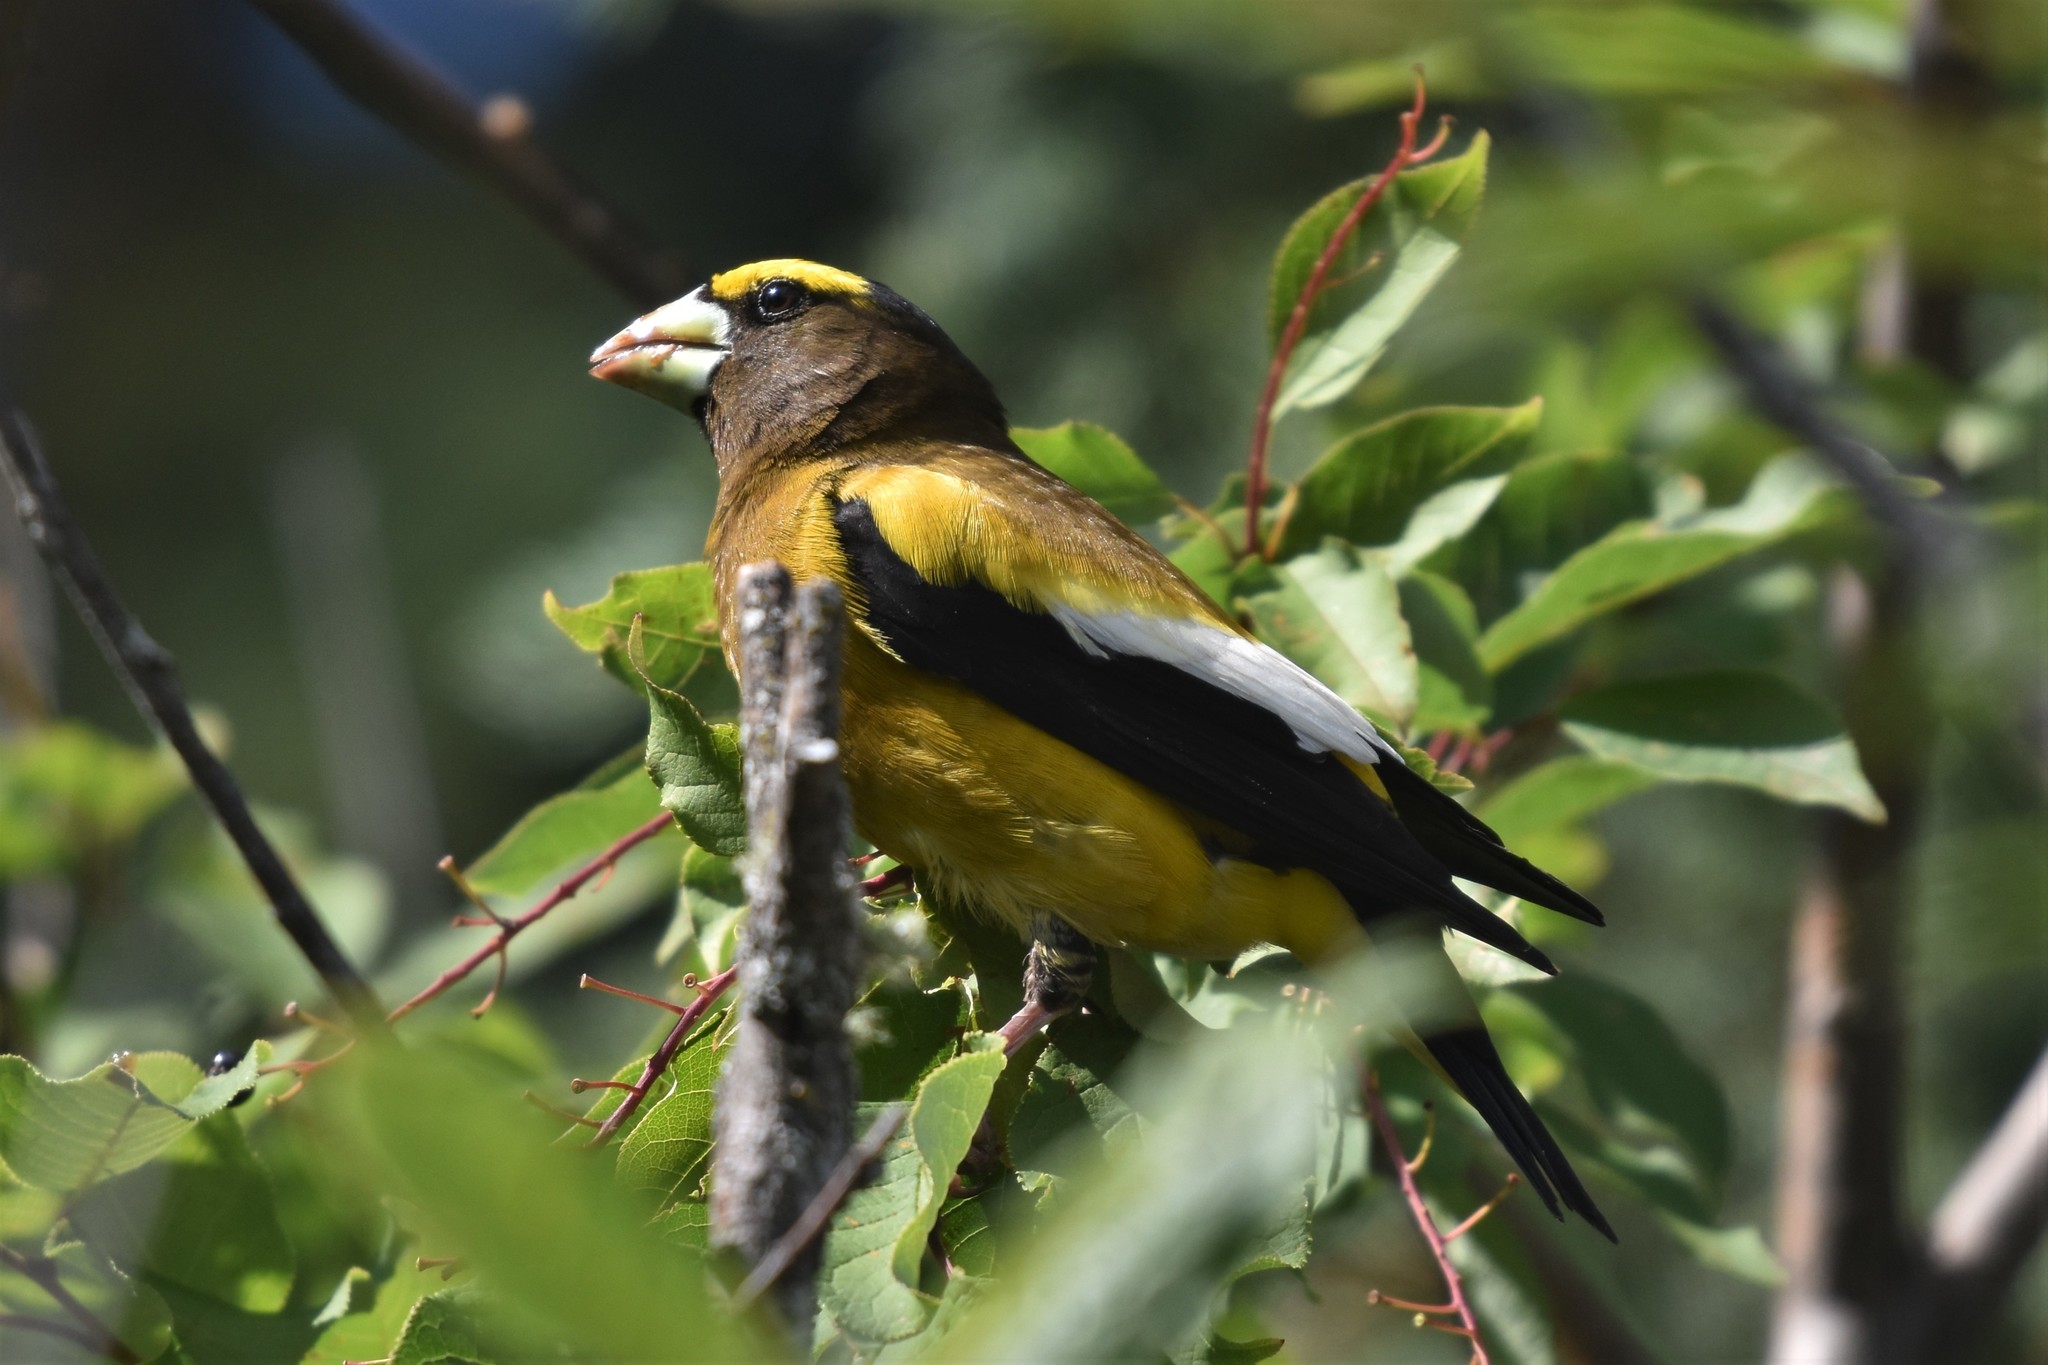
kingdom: Animalia
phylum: Chordata
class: Aves
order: Passeriformes
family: Fringillidae
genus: Hesperiphona
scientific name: Hesperiphona vespertina
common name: Evening grosbeak
